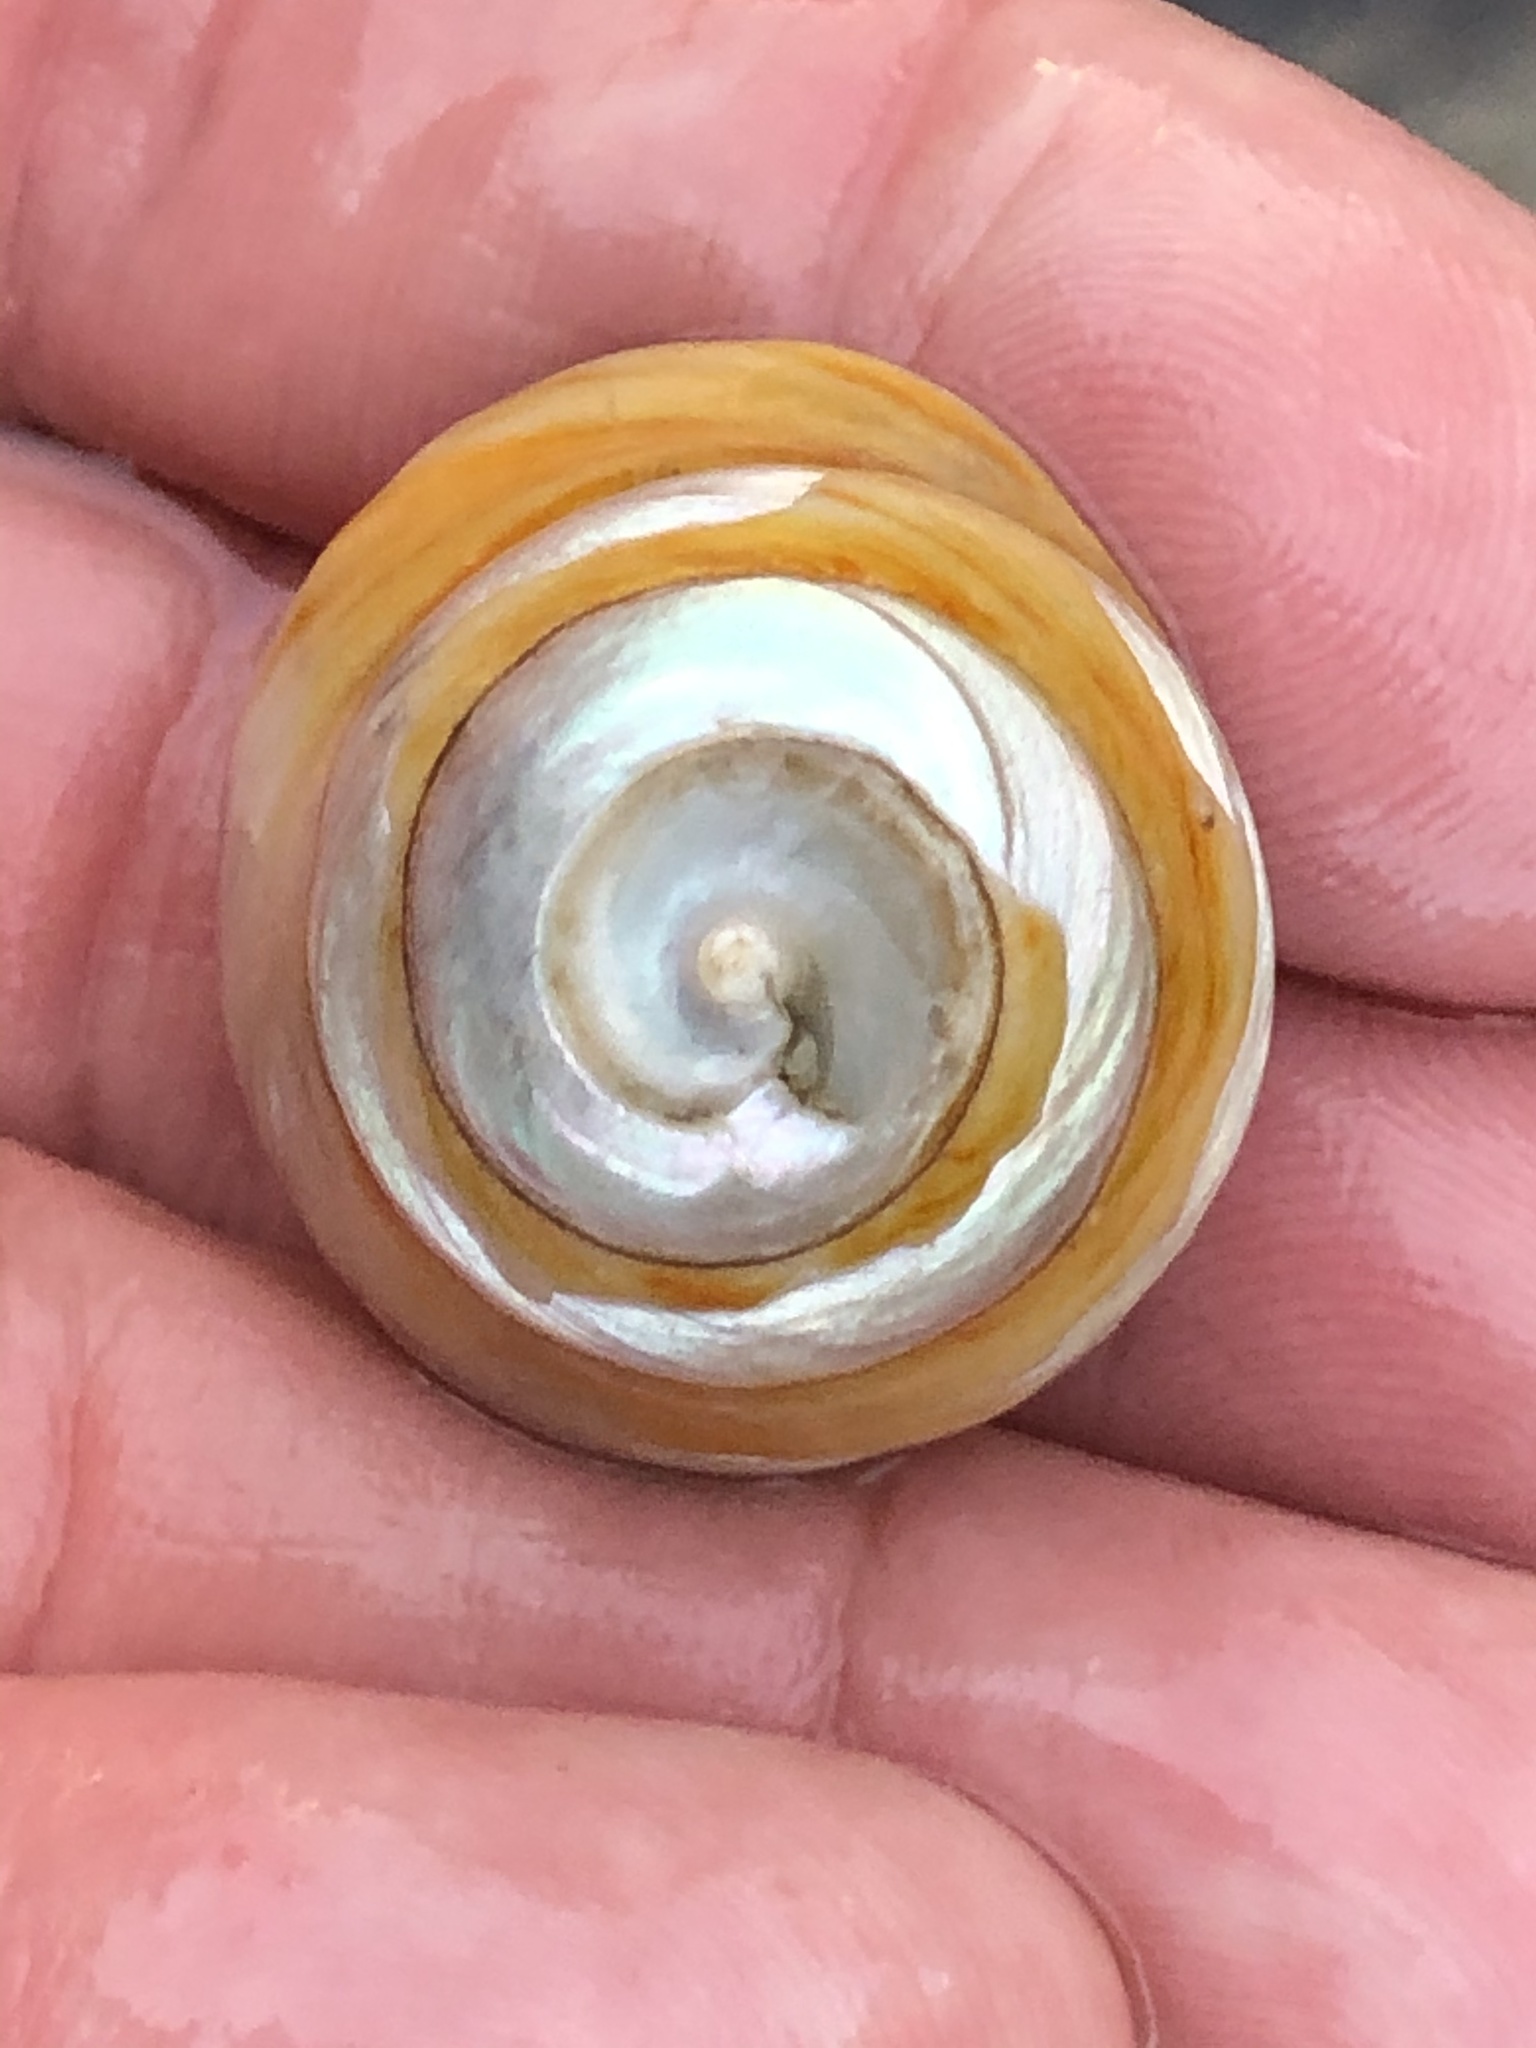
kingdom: Animalia
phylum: Mollusca
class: Gastropoda
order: Trochida
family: Tegulidae
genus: Tegula
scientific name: Tegula brunnea
